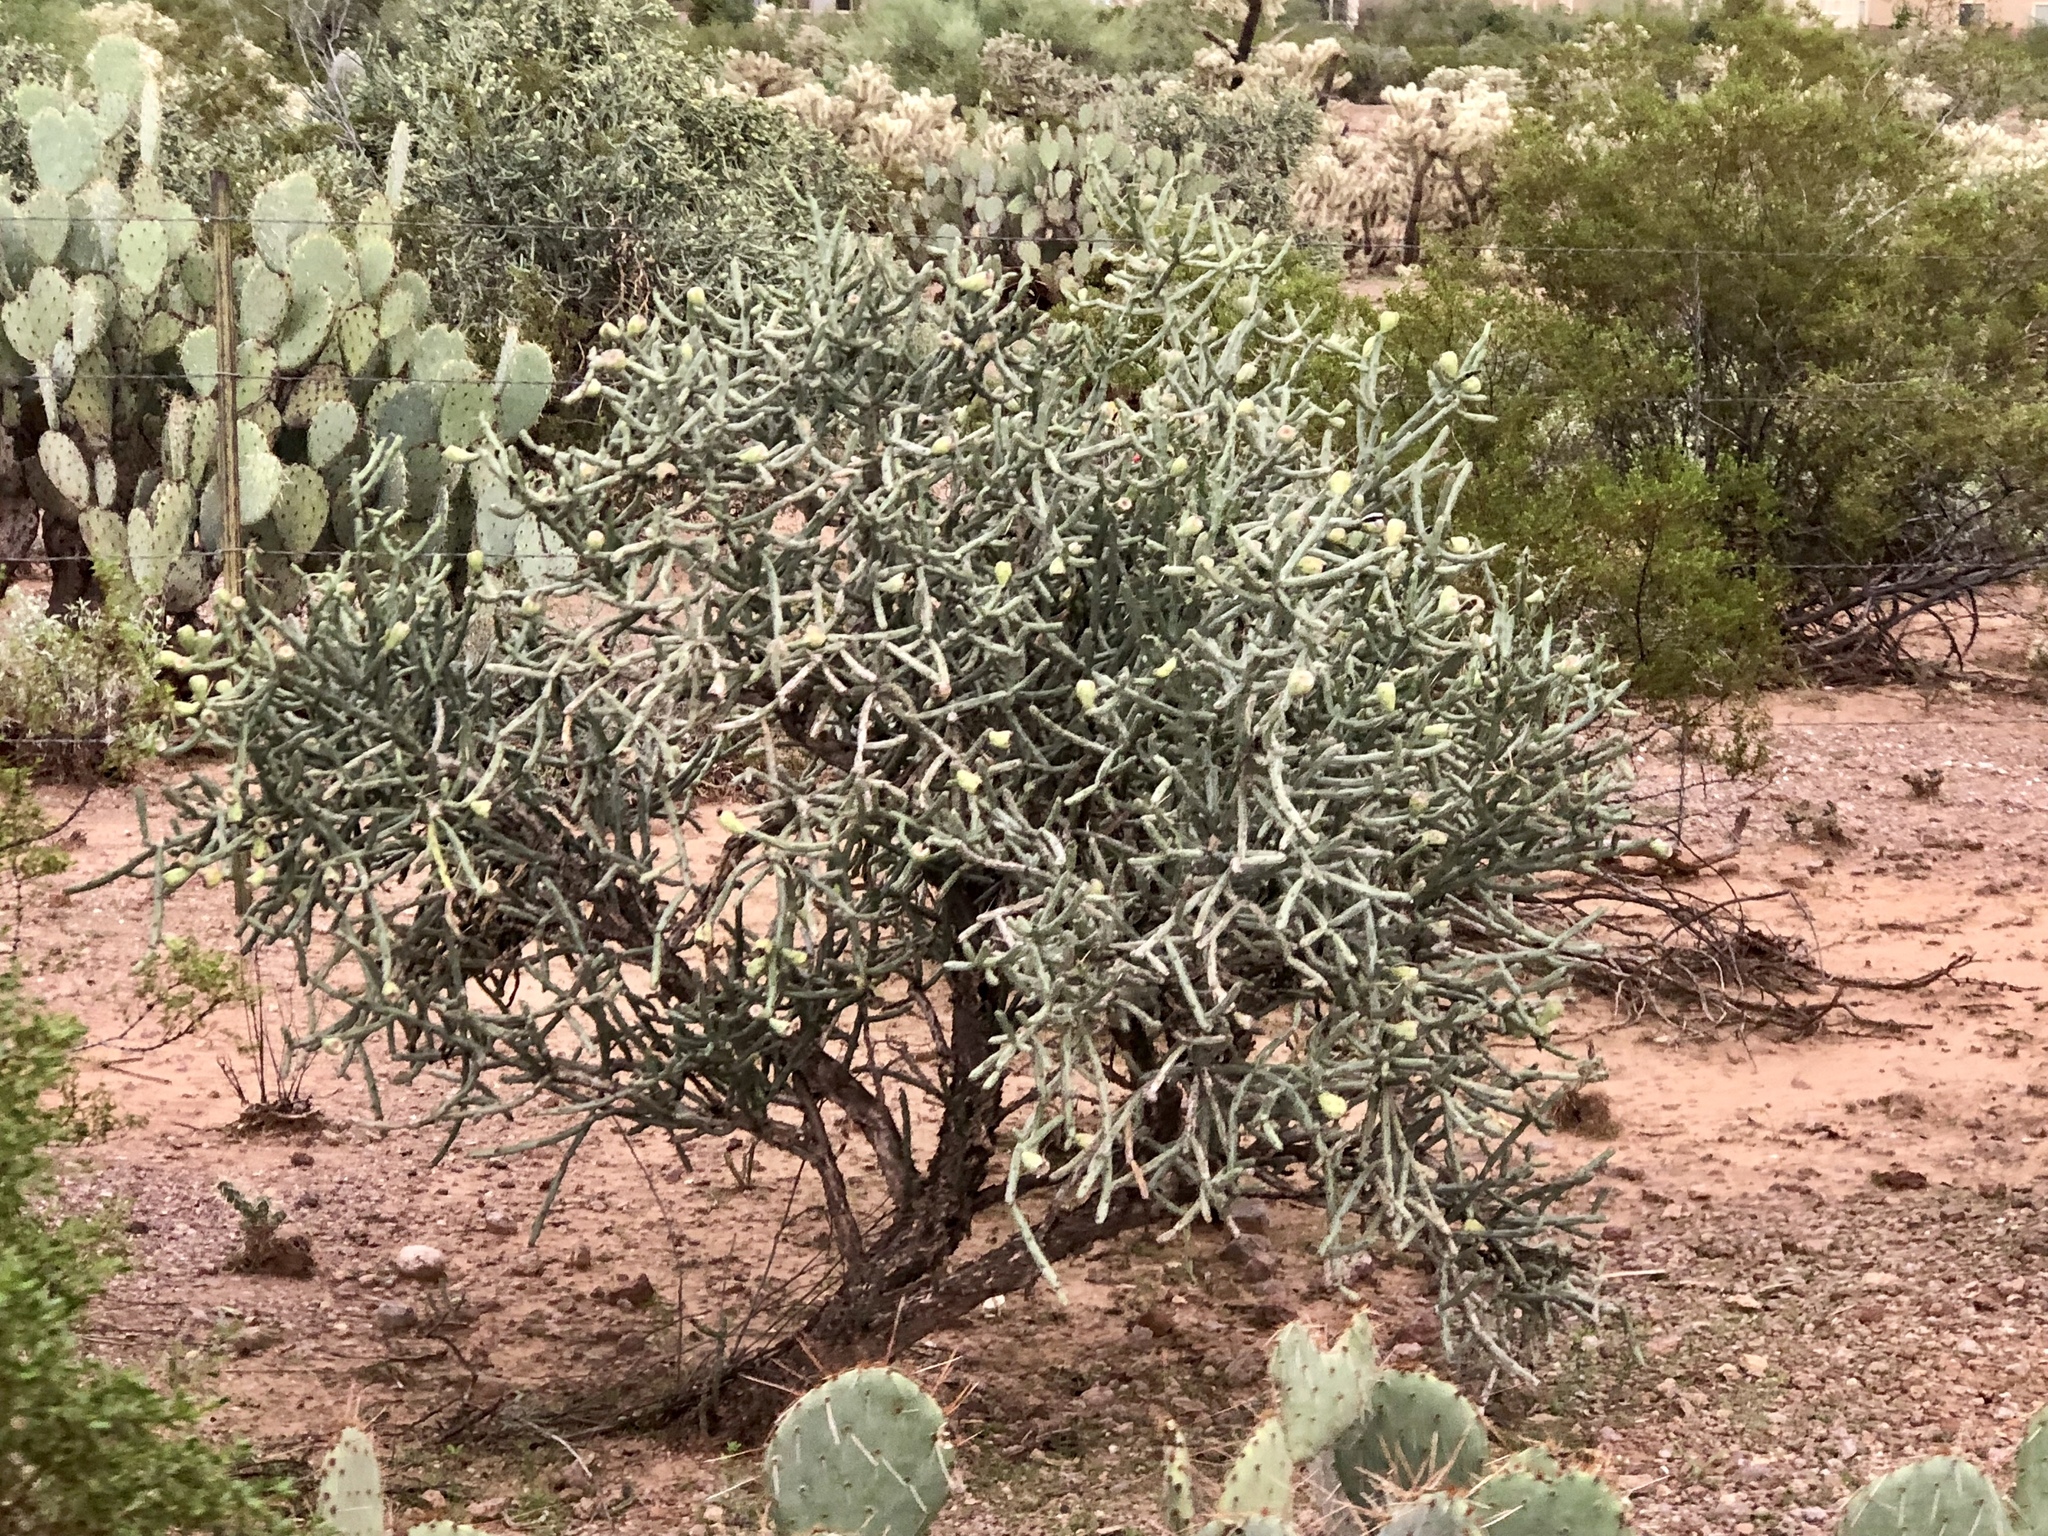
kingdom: Plantae
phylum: Tracheophyta
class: Magnoliopsida
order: Caryophyllales
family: Cactaceae
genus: Cylindropuntia
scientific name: Cylindropuntia arbuscula
